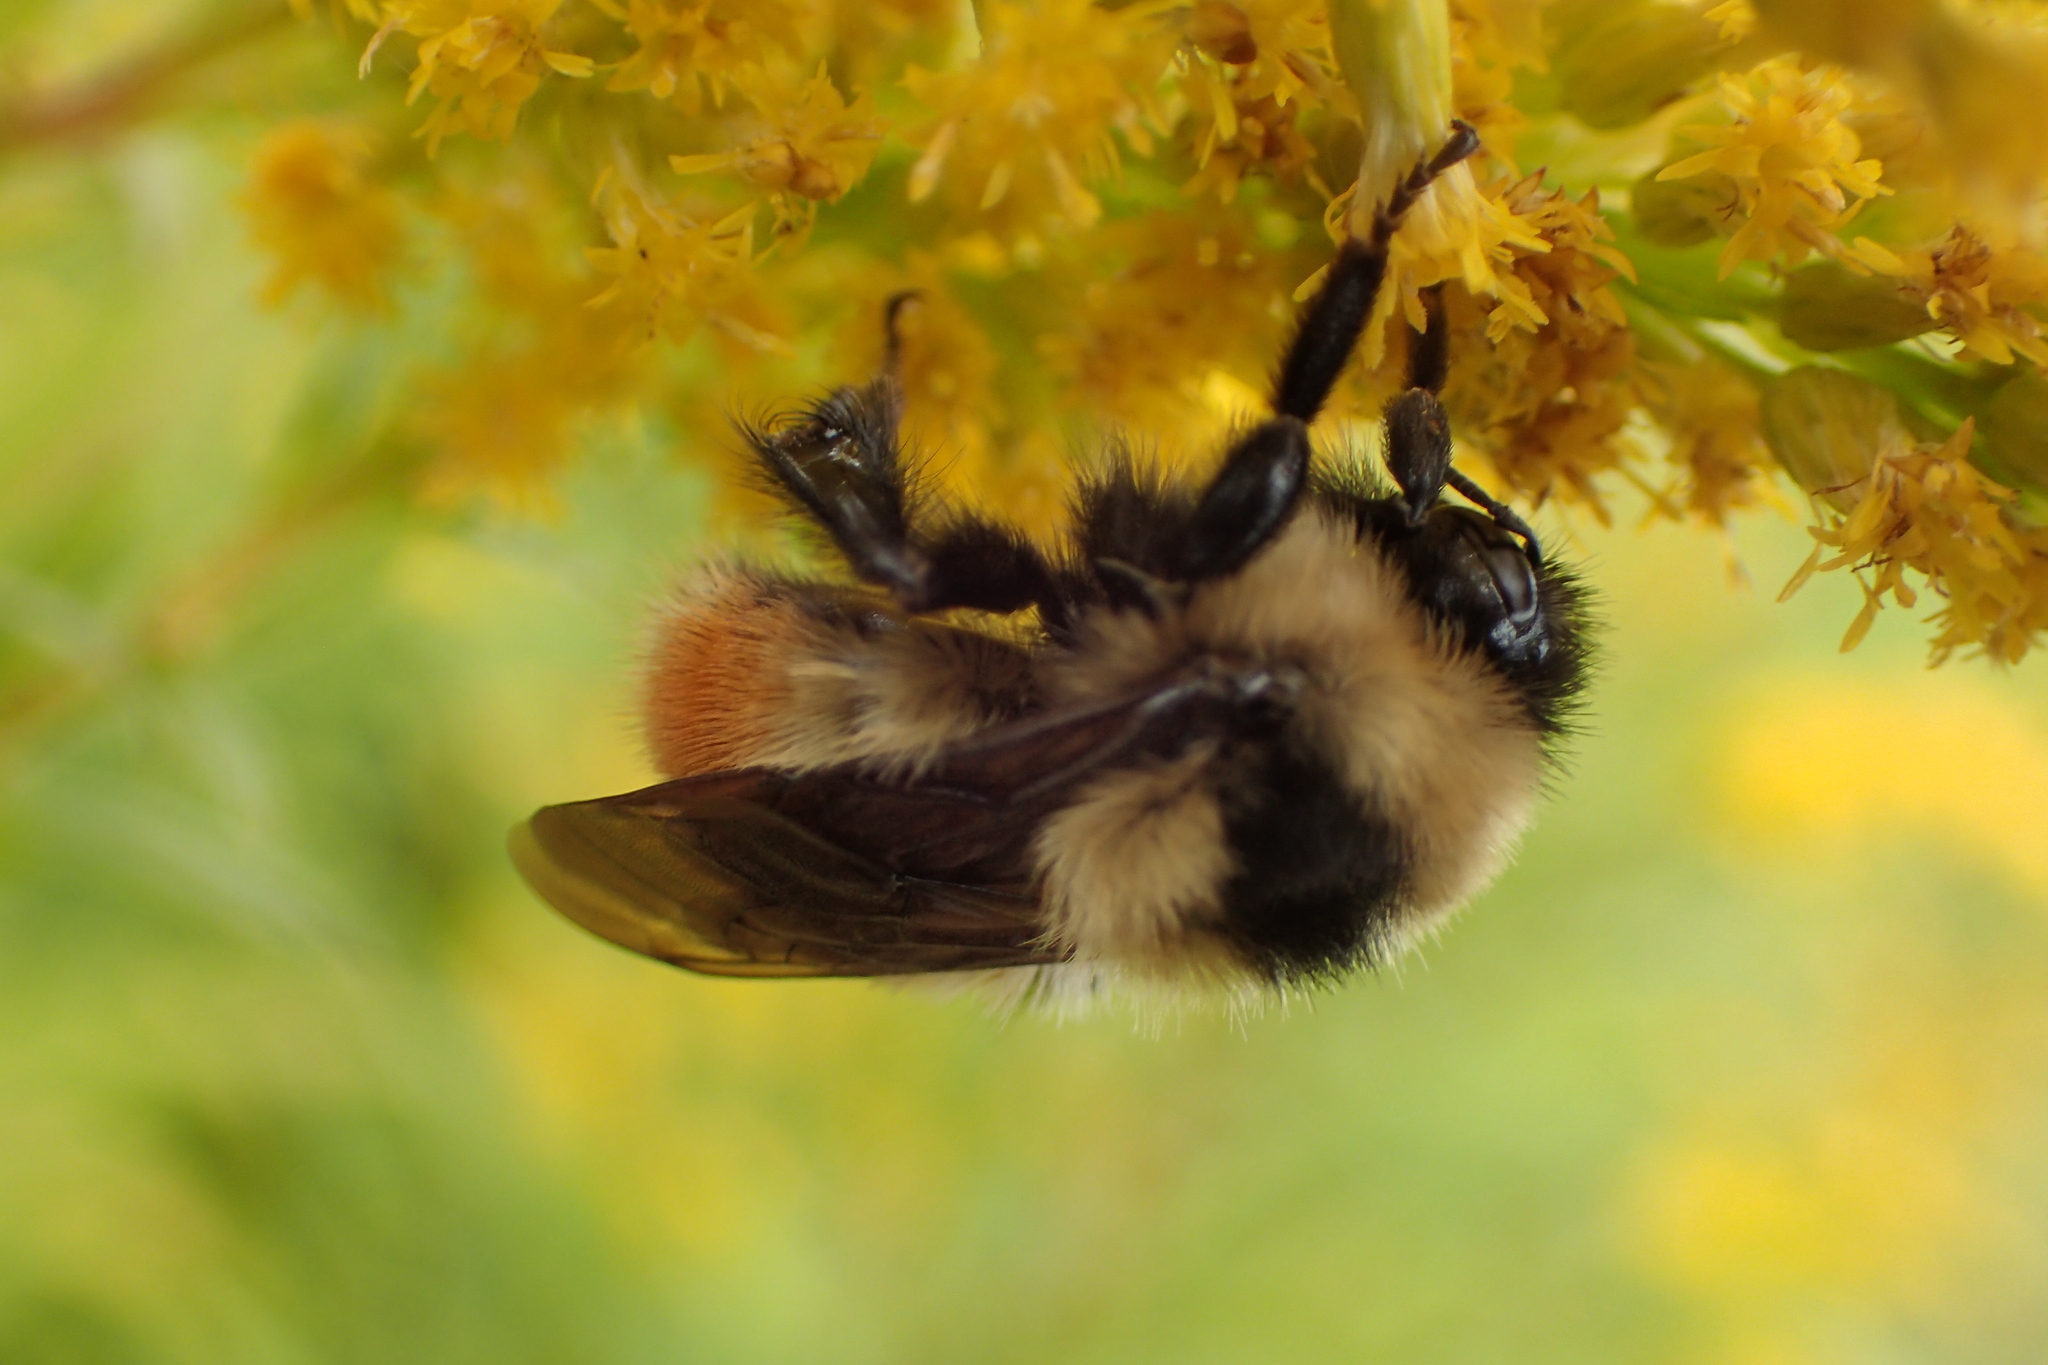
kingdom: Animalia
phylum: Arthropoda
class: Insecta
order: Hymenoptera
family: Apidae
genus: Bombus
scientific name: Bombus rufocinctus
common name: Red-belted bumble bee
